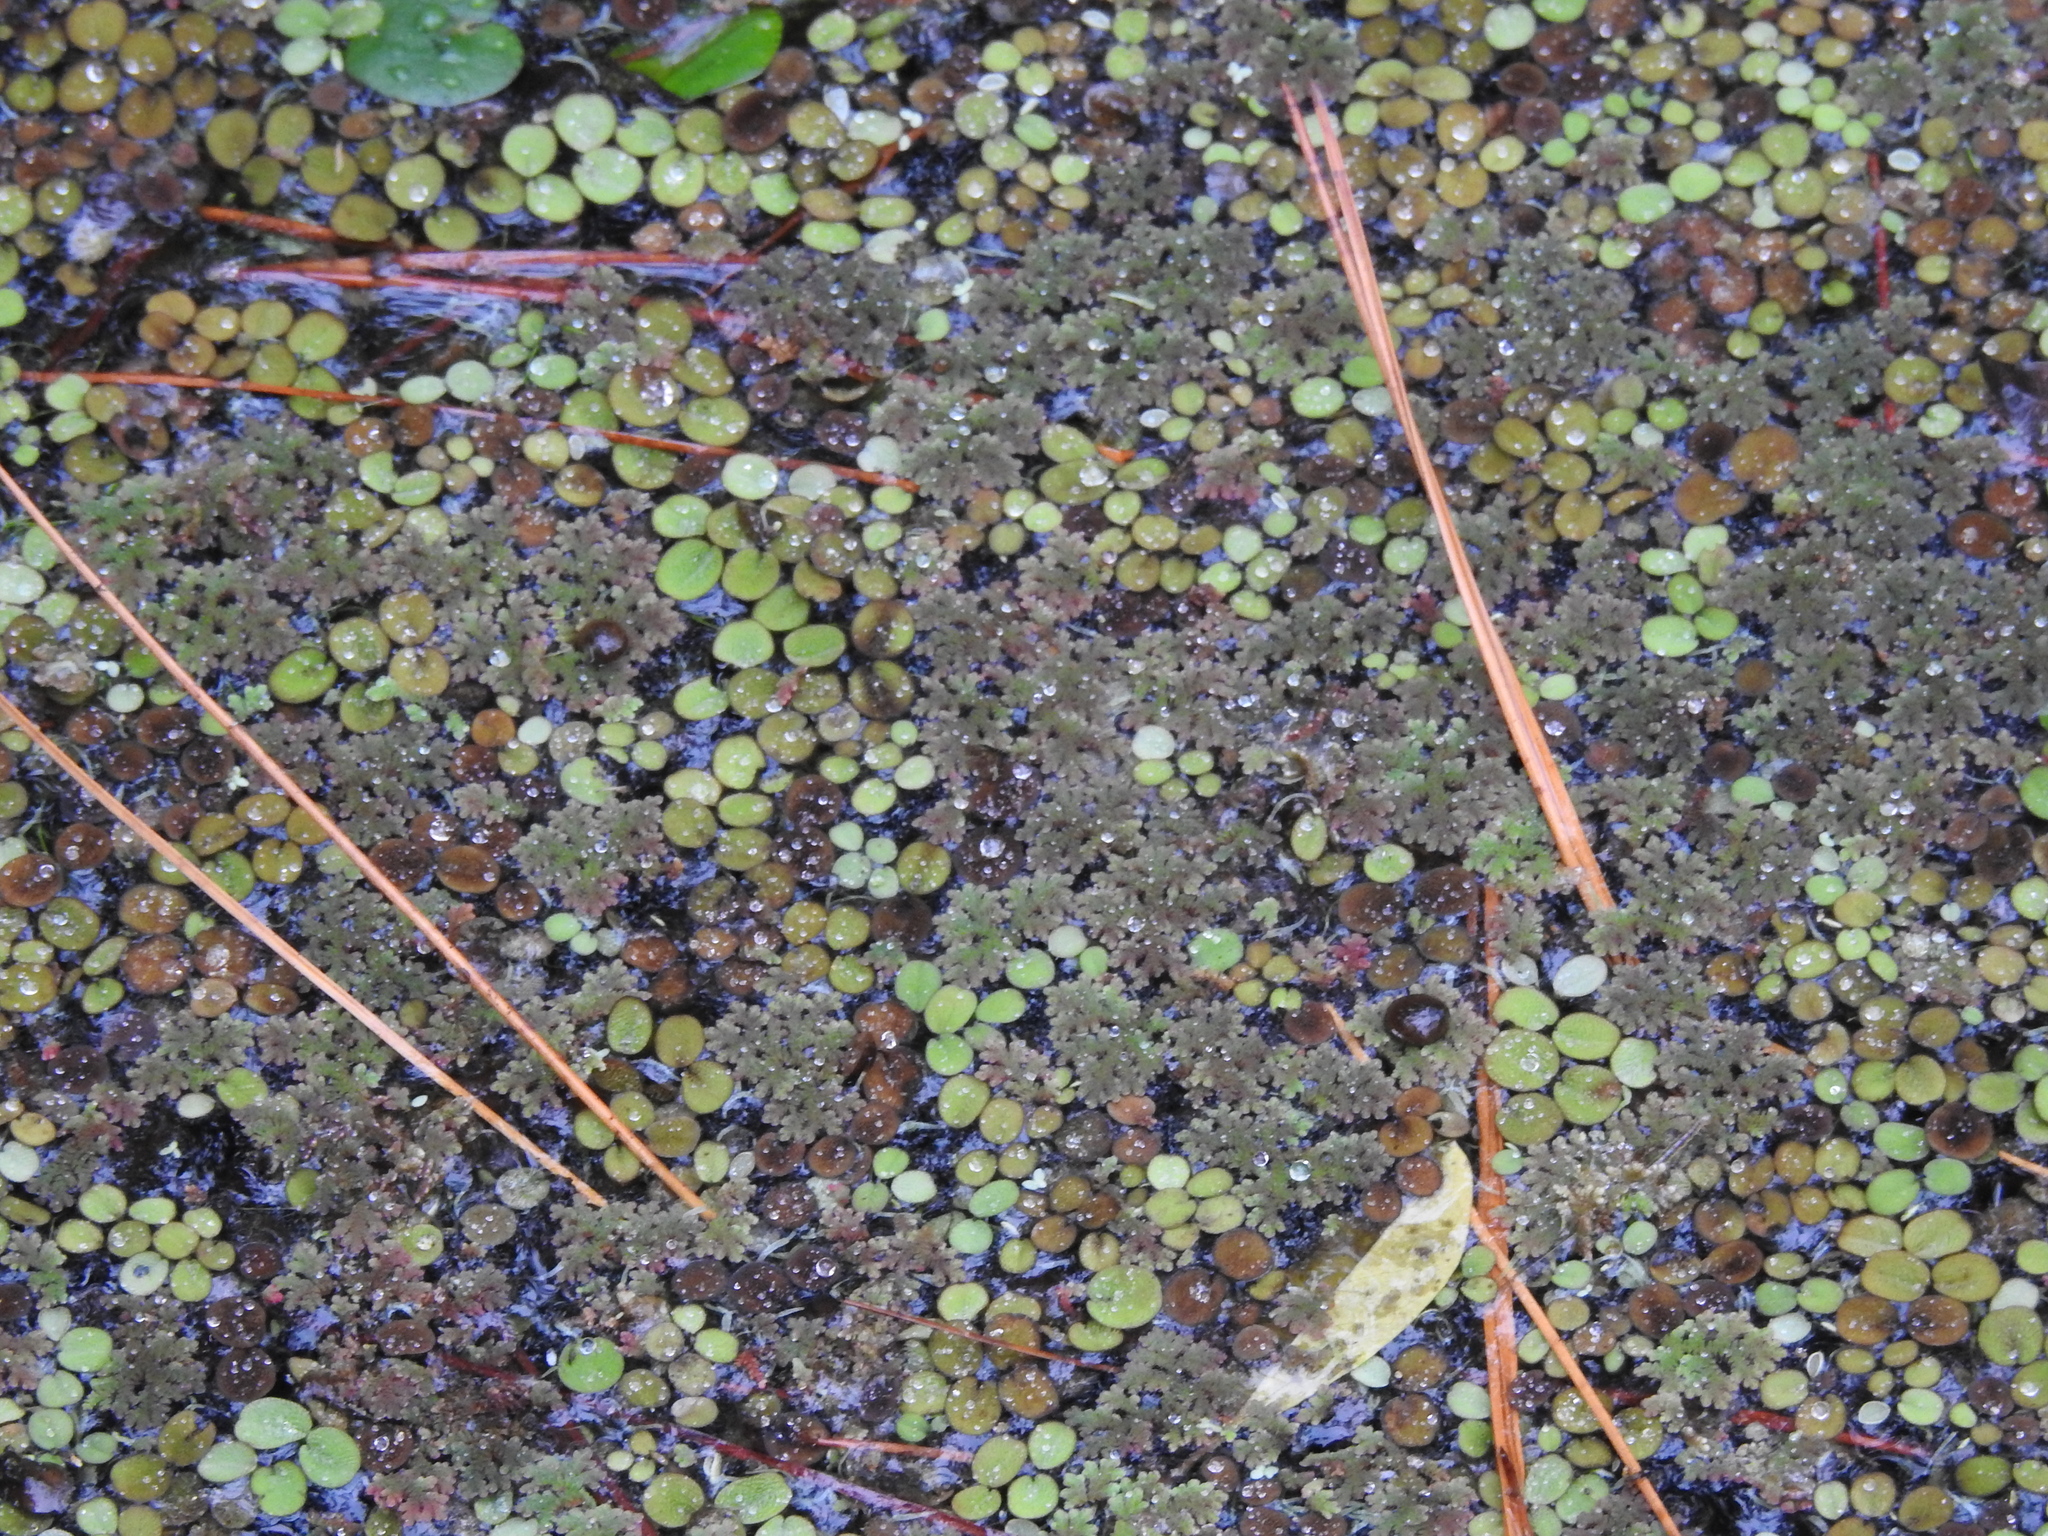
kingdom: Plantae
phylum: Tracheophyta
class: Polypodiopsida
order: Salviniales
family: Salviniaceae
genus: Azolla
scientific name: Azolla caroliniana
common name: Carolina mosquitofern
